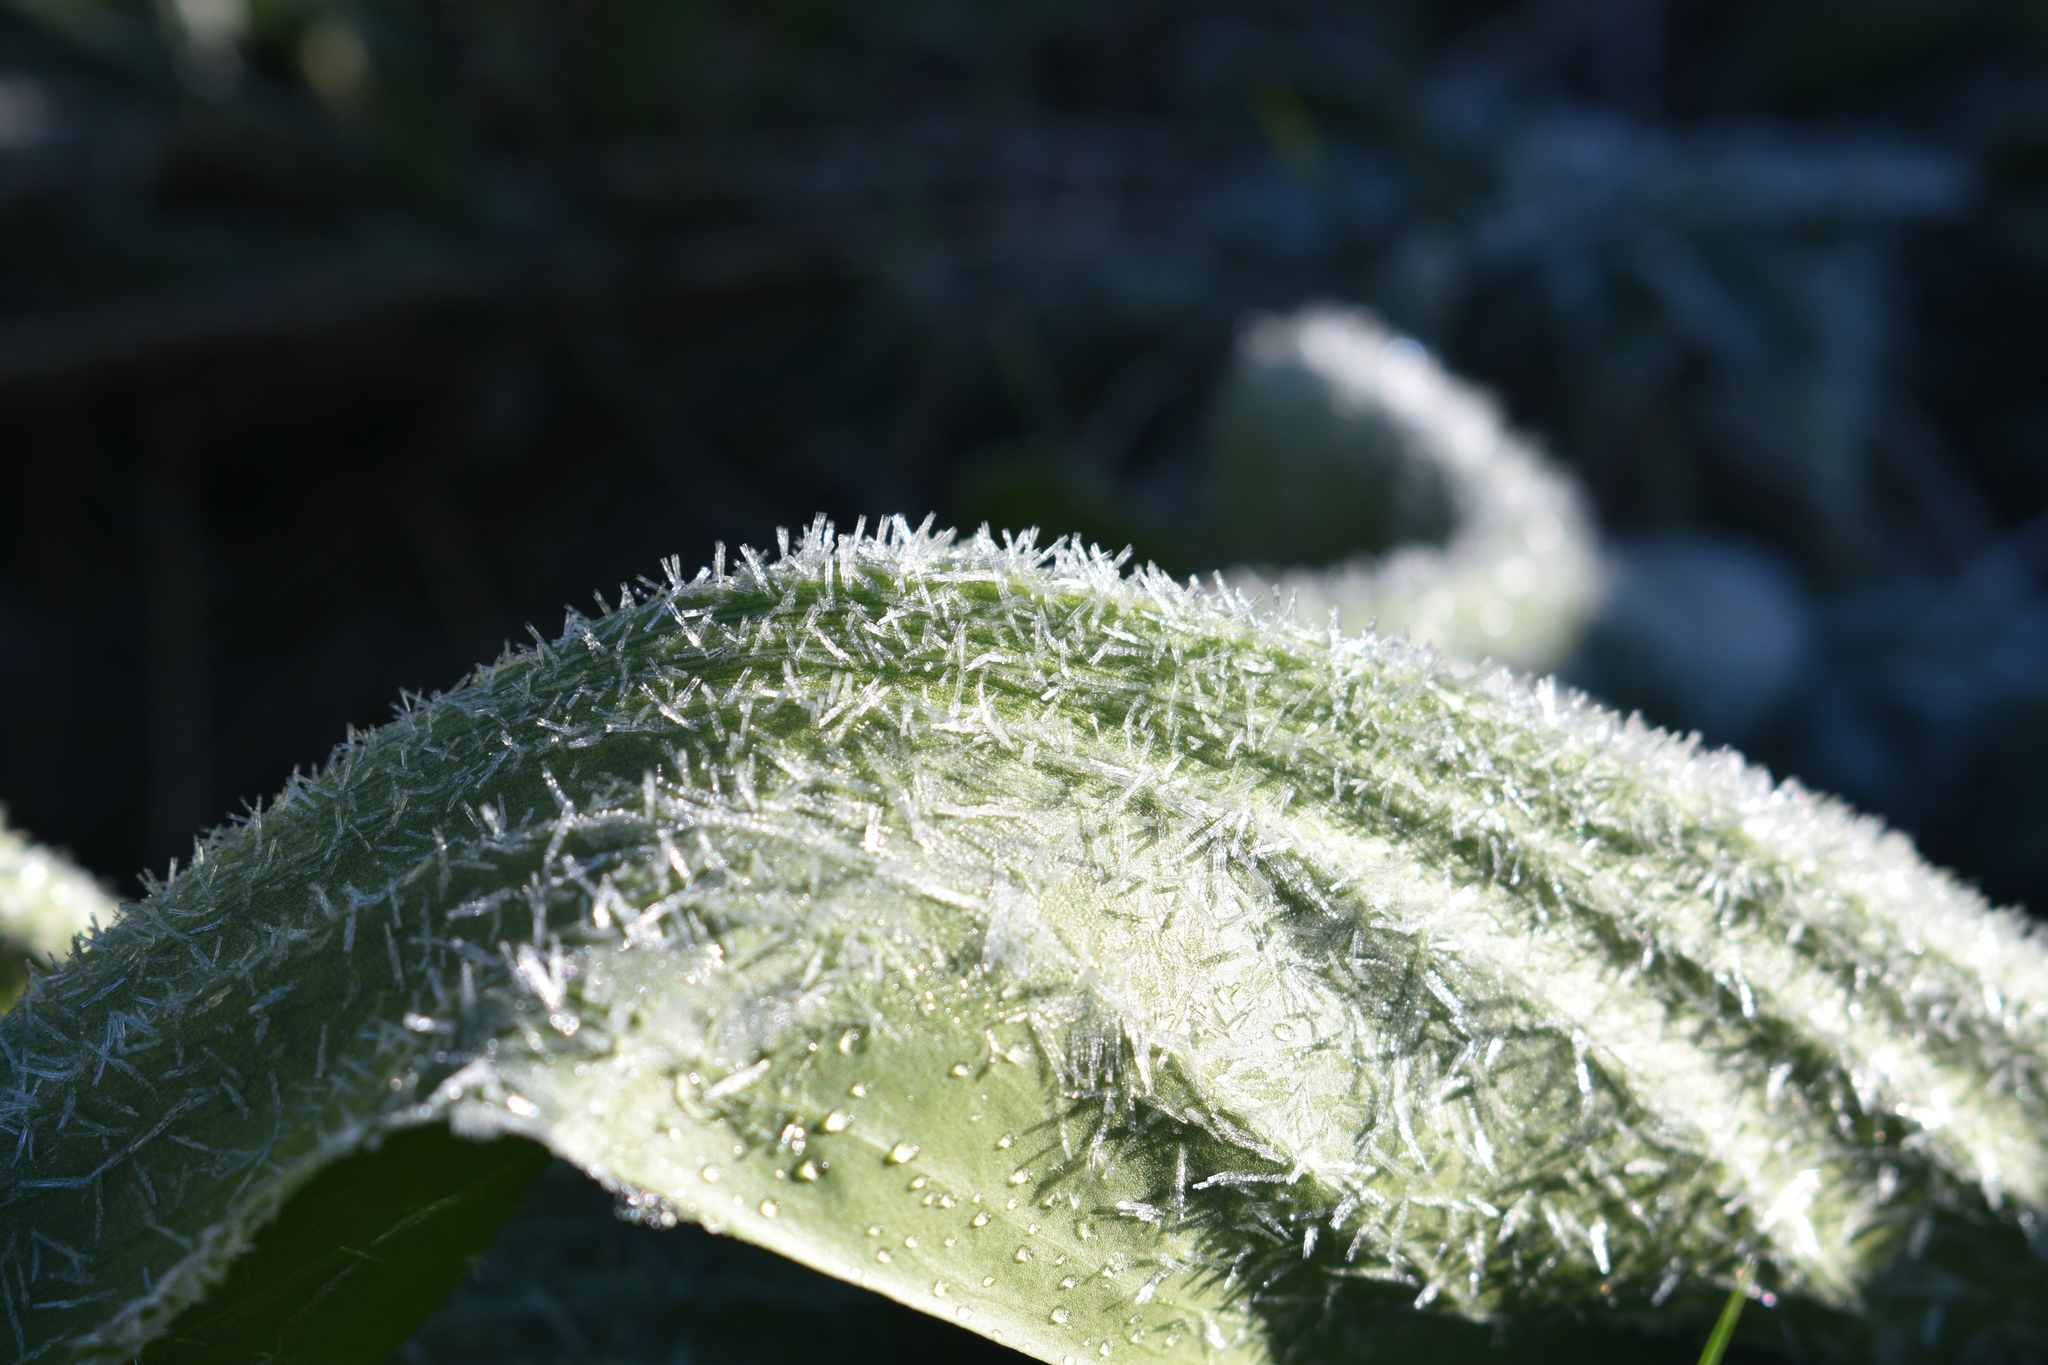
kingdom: Plantae
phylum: Tracheophyta
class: Magnoliopsida
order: Gentianales
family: Gentianaceae
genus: Frasera
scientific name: Frasera speciosa
